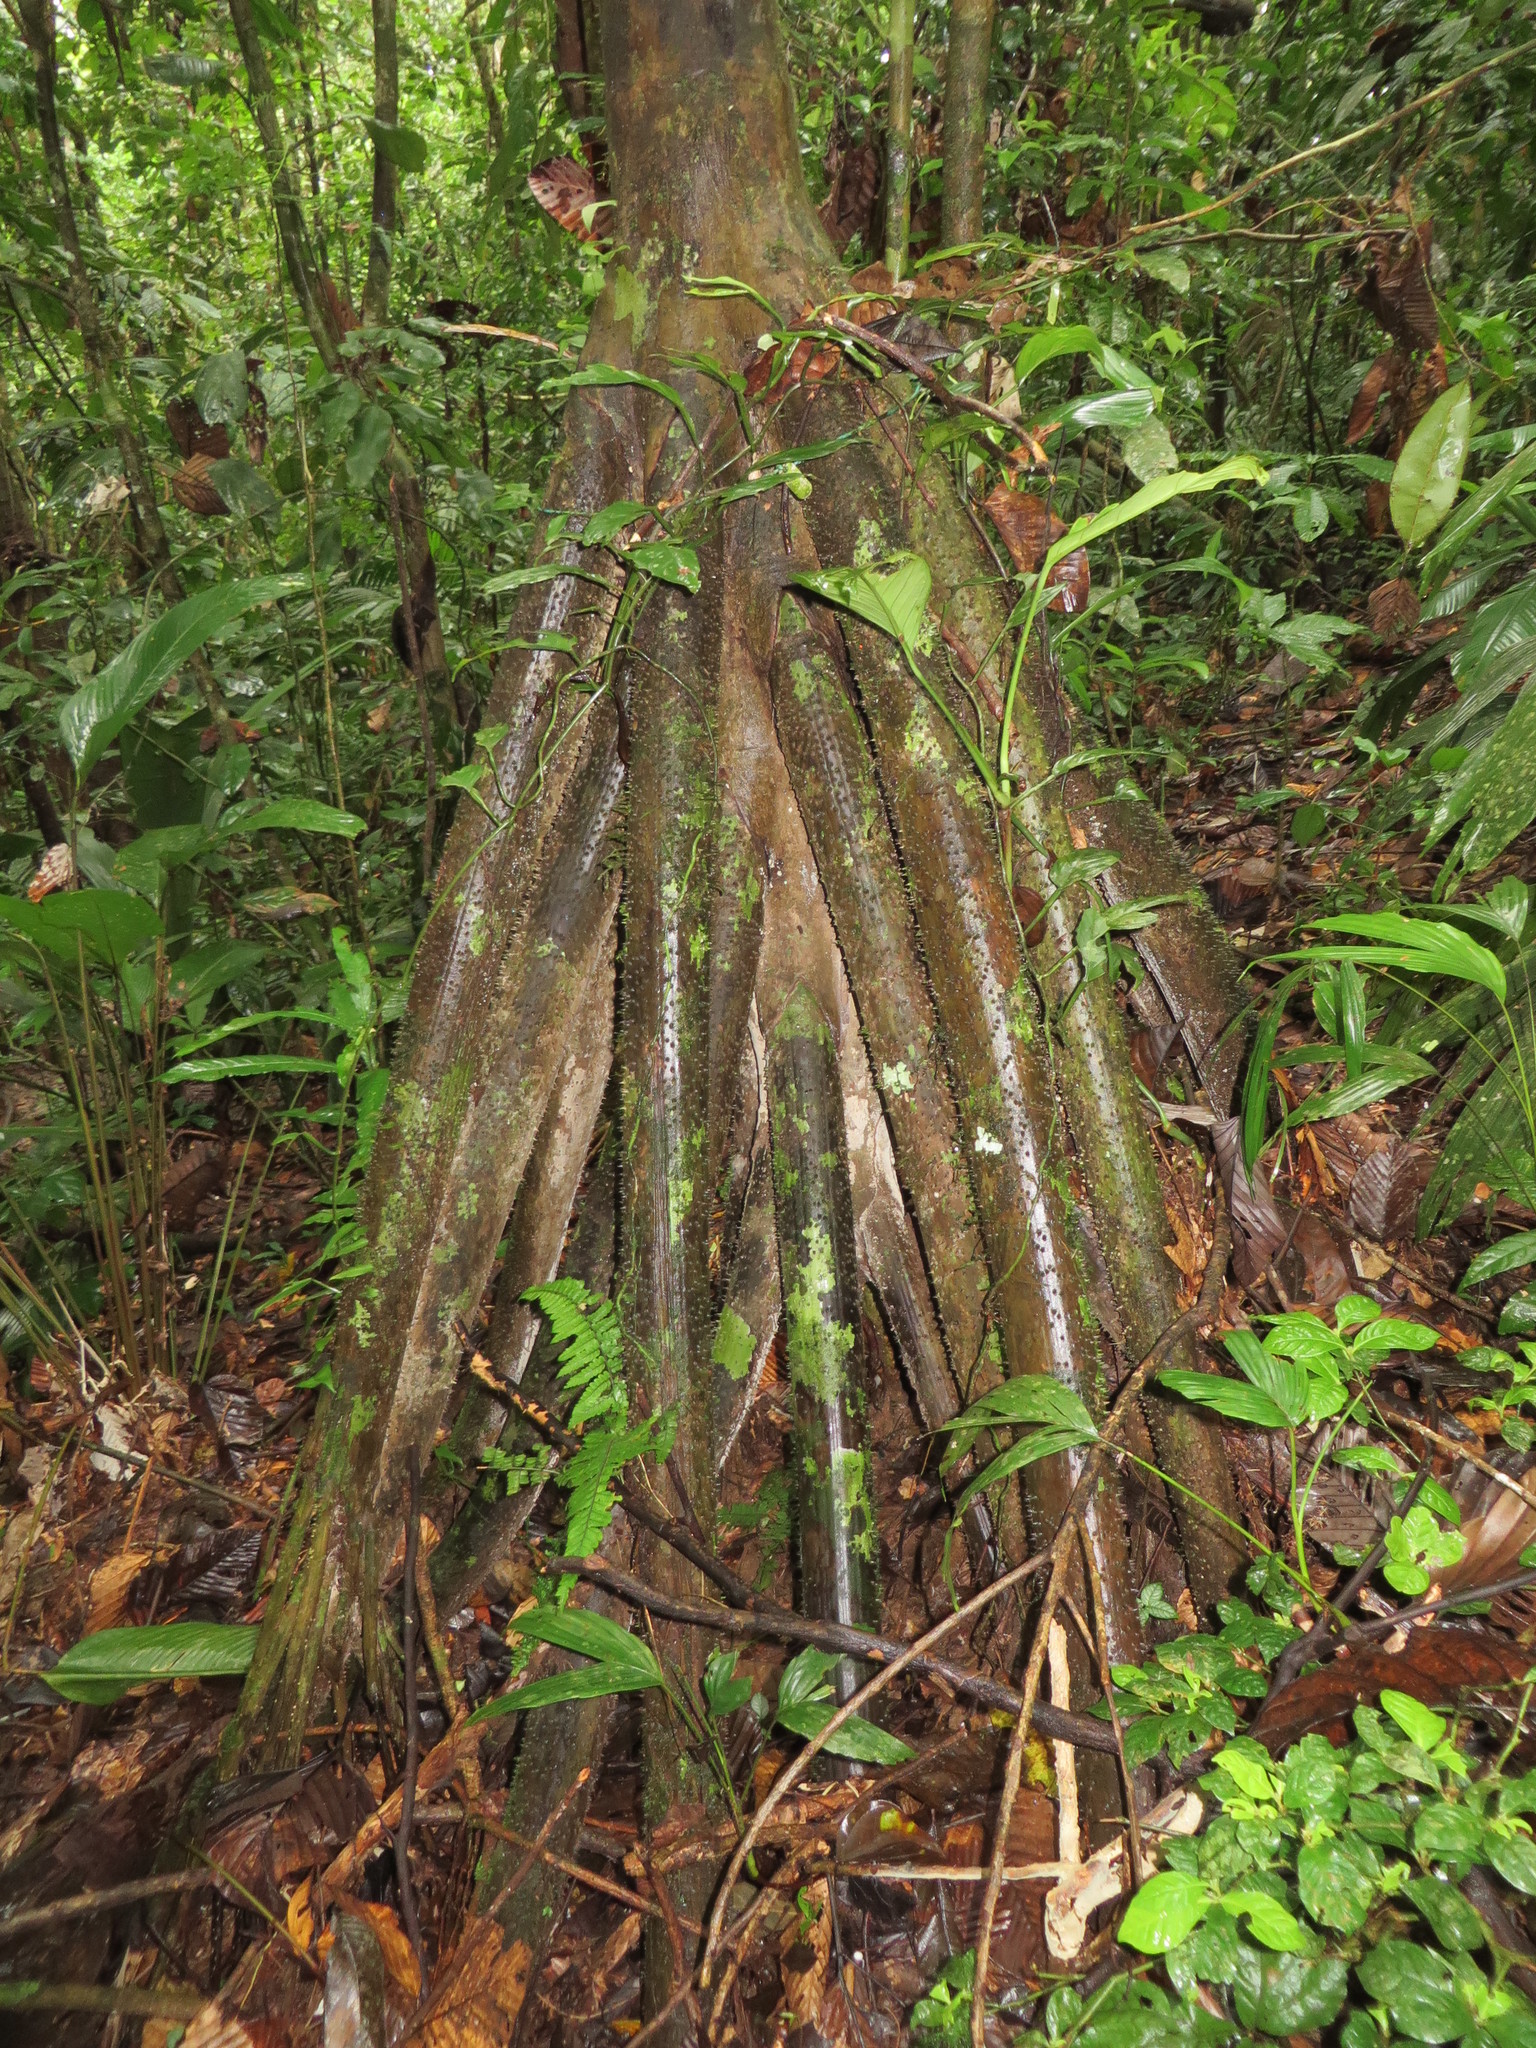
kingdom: Plantae
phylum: Tracheophyta
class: Liliopsida
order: Arecales
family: Arecaceae
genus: Socratea
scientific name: Socratea exorrhiza
